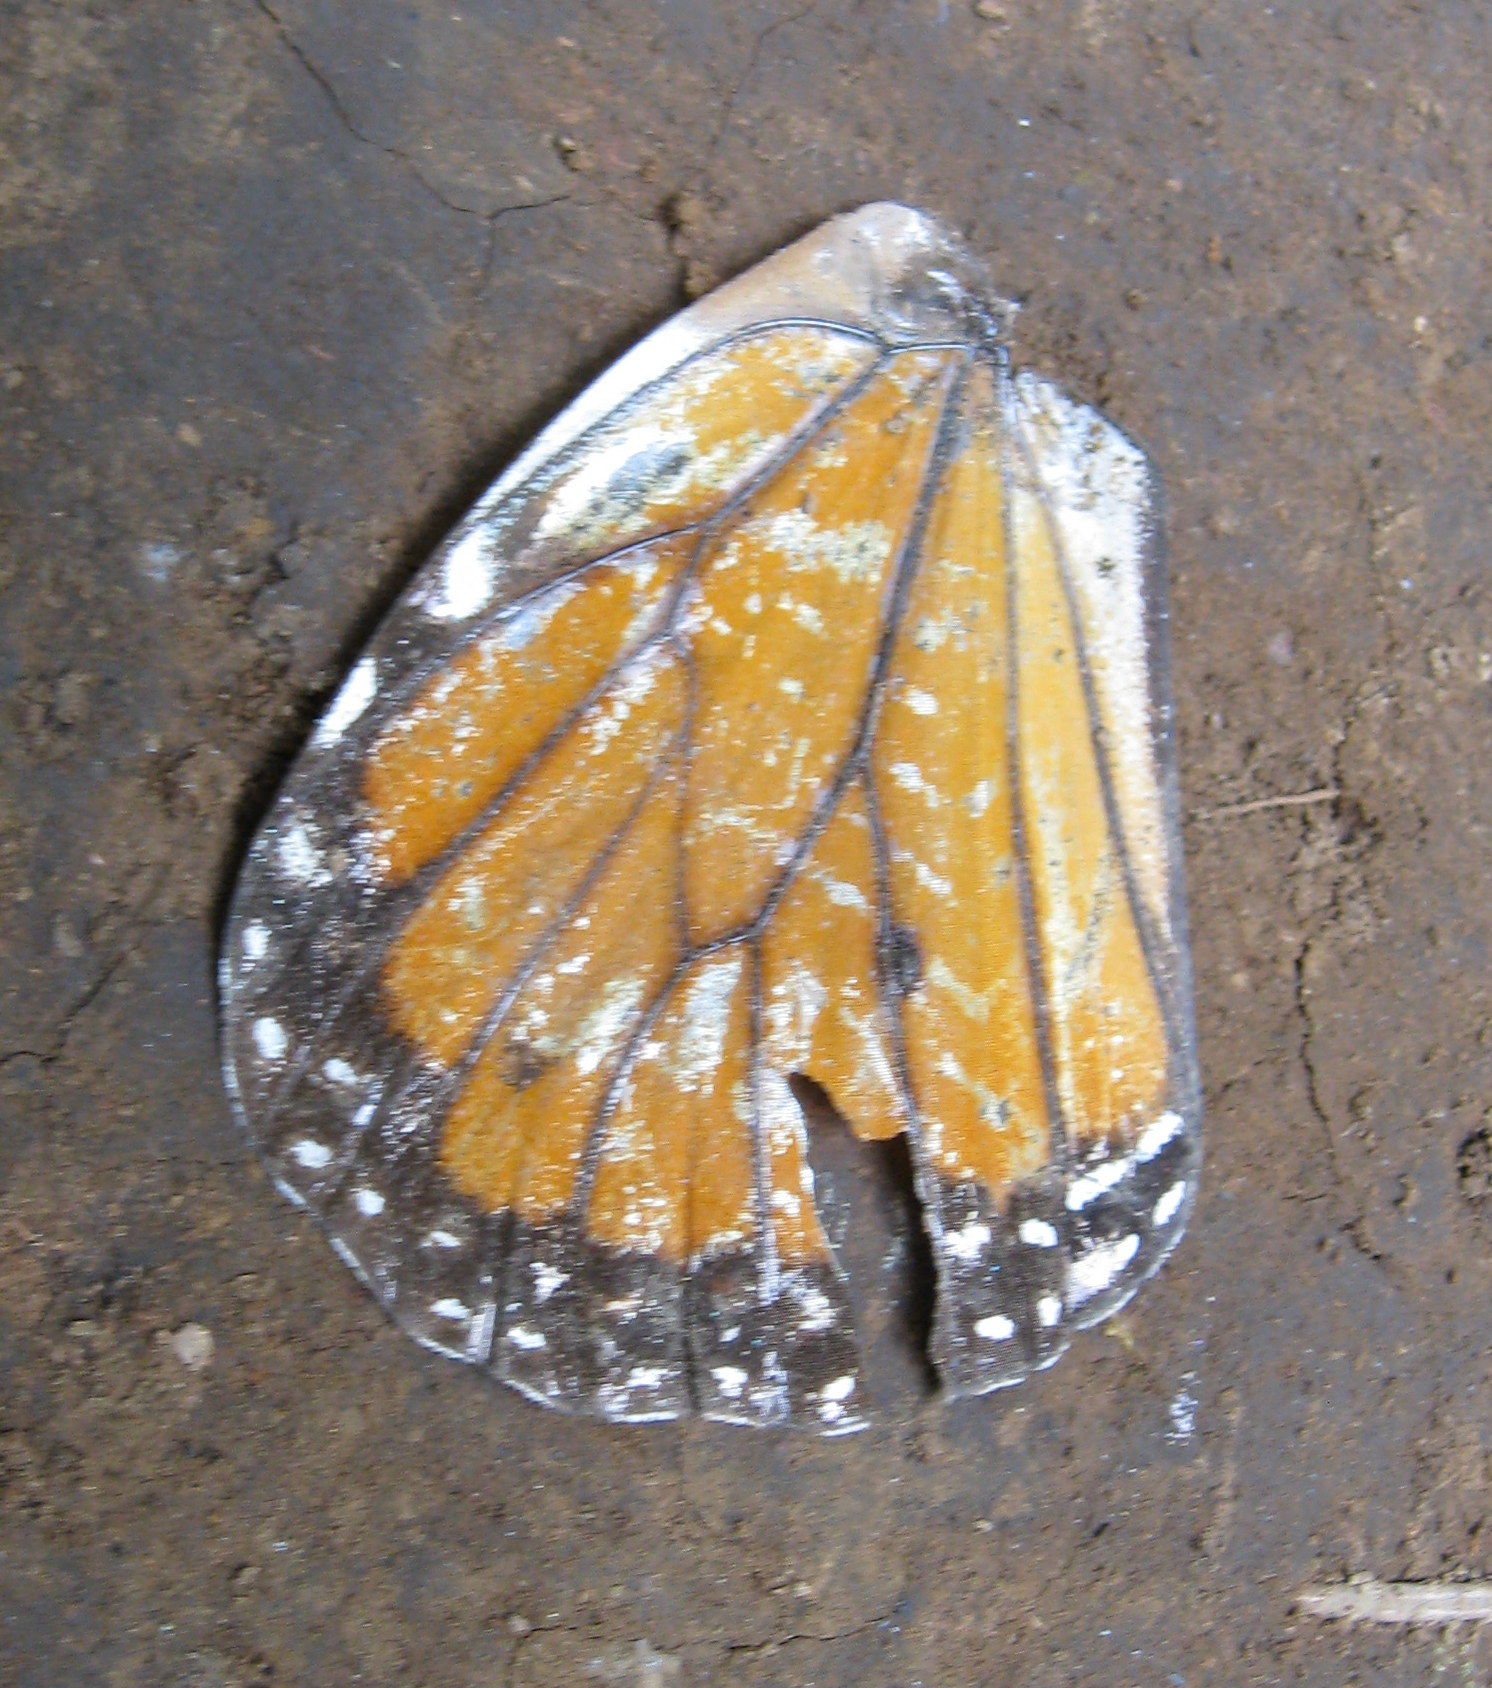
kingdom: Animalia
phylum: Arthropoda
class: Insecta
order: Lepidoptera
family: Nymphalidae
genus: Danaus
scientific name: Danaus plexippus
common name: Monarch
